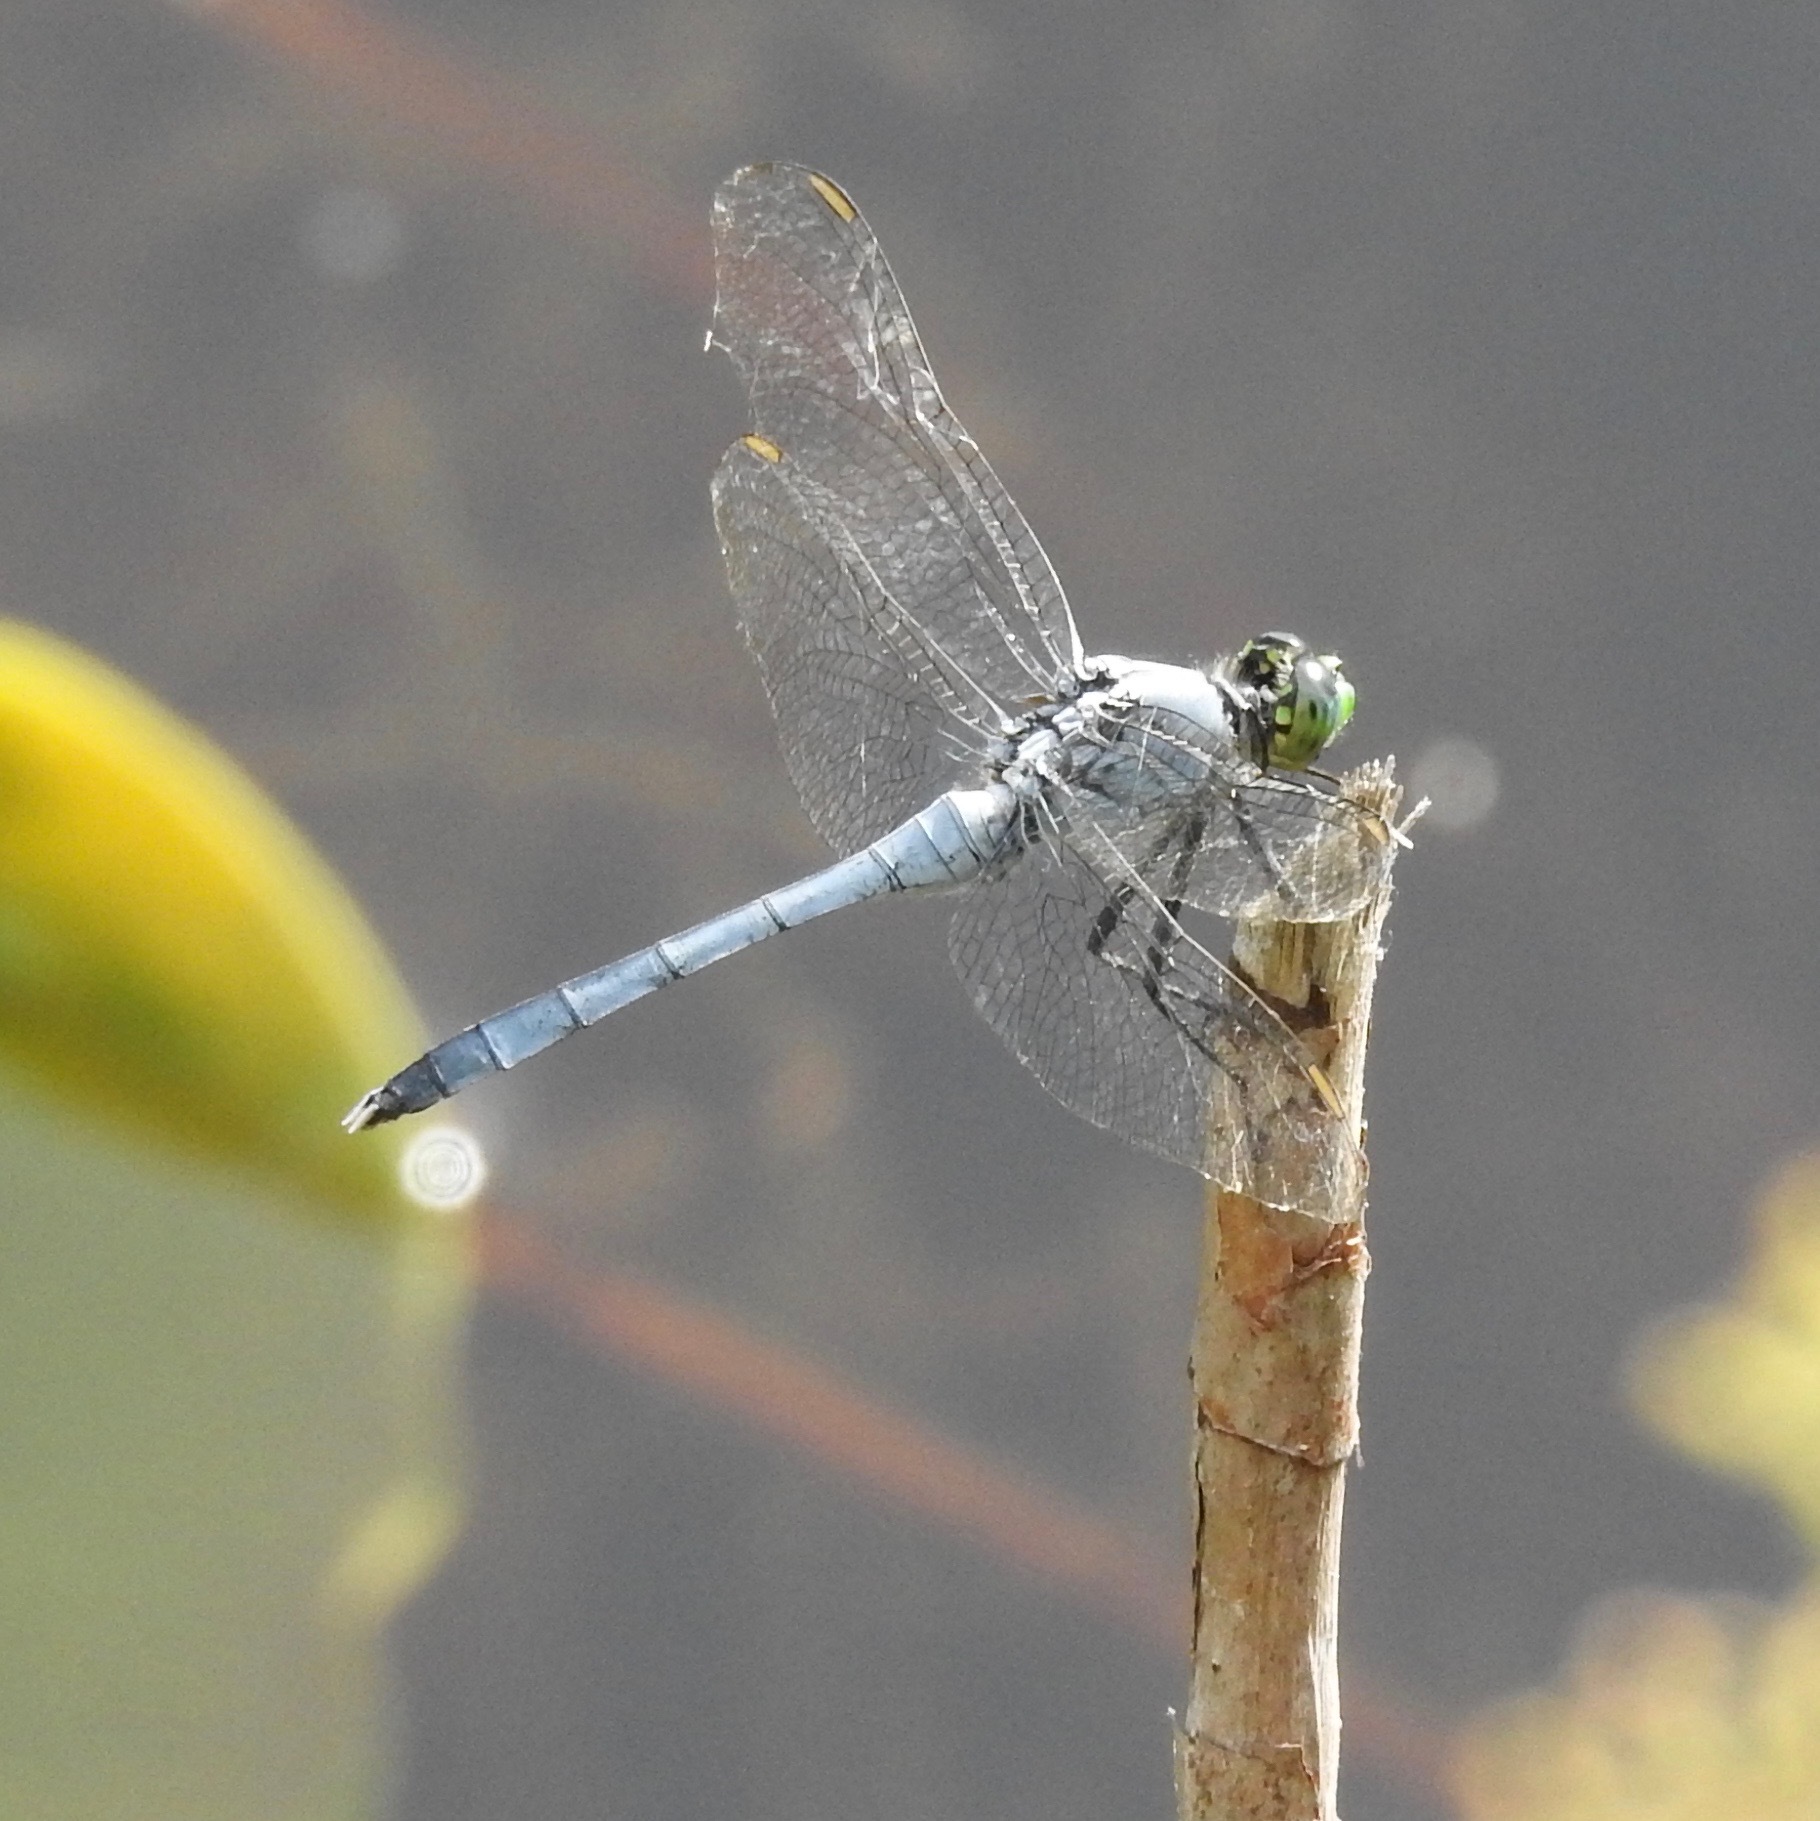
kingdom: Animalia
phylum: Arthropoda
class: Insecta
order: Odonata
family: Libellulidae
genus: Erythemis
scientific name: Erythemis simplicicollis
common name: Eastern pondhawk
